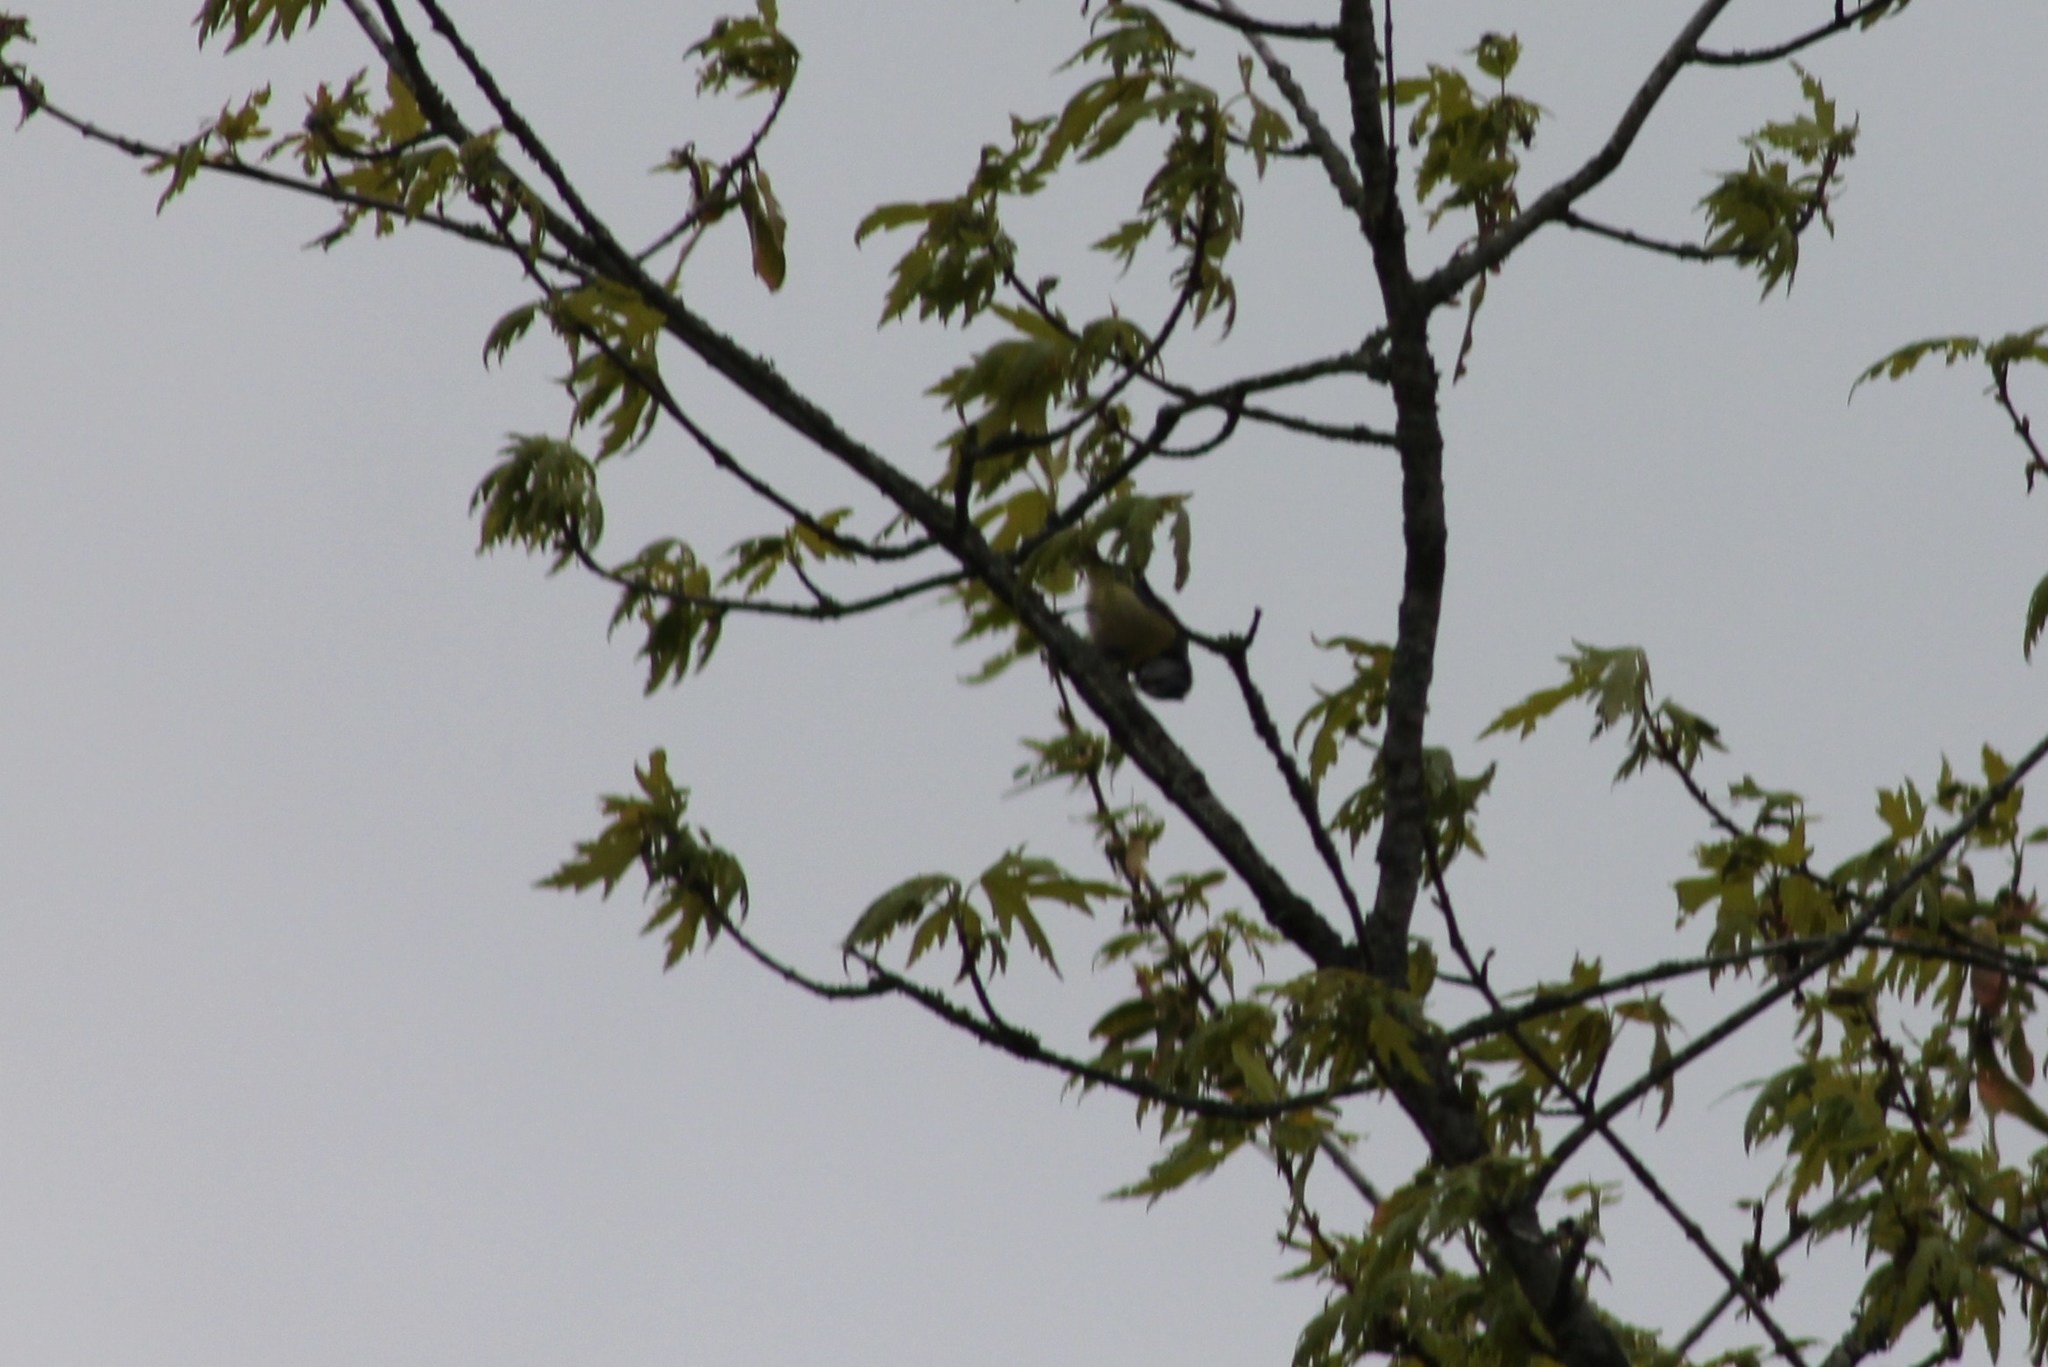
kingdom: Animalia
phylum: Chordata
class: Aves
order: Passeriformes
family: Paridae
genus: Cyanistes
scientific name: Cyanistes caeruleus
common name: Eurasian blue tit
